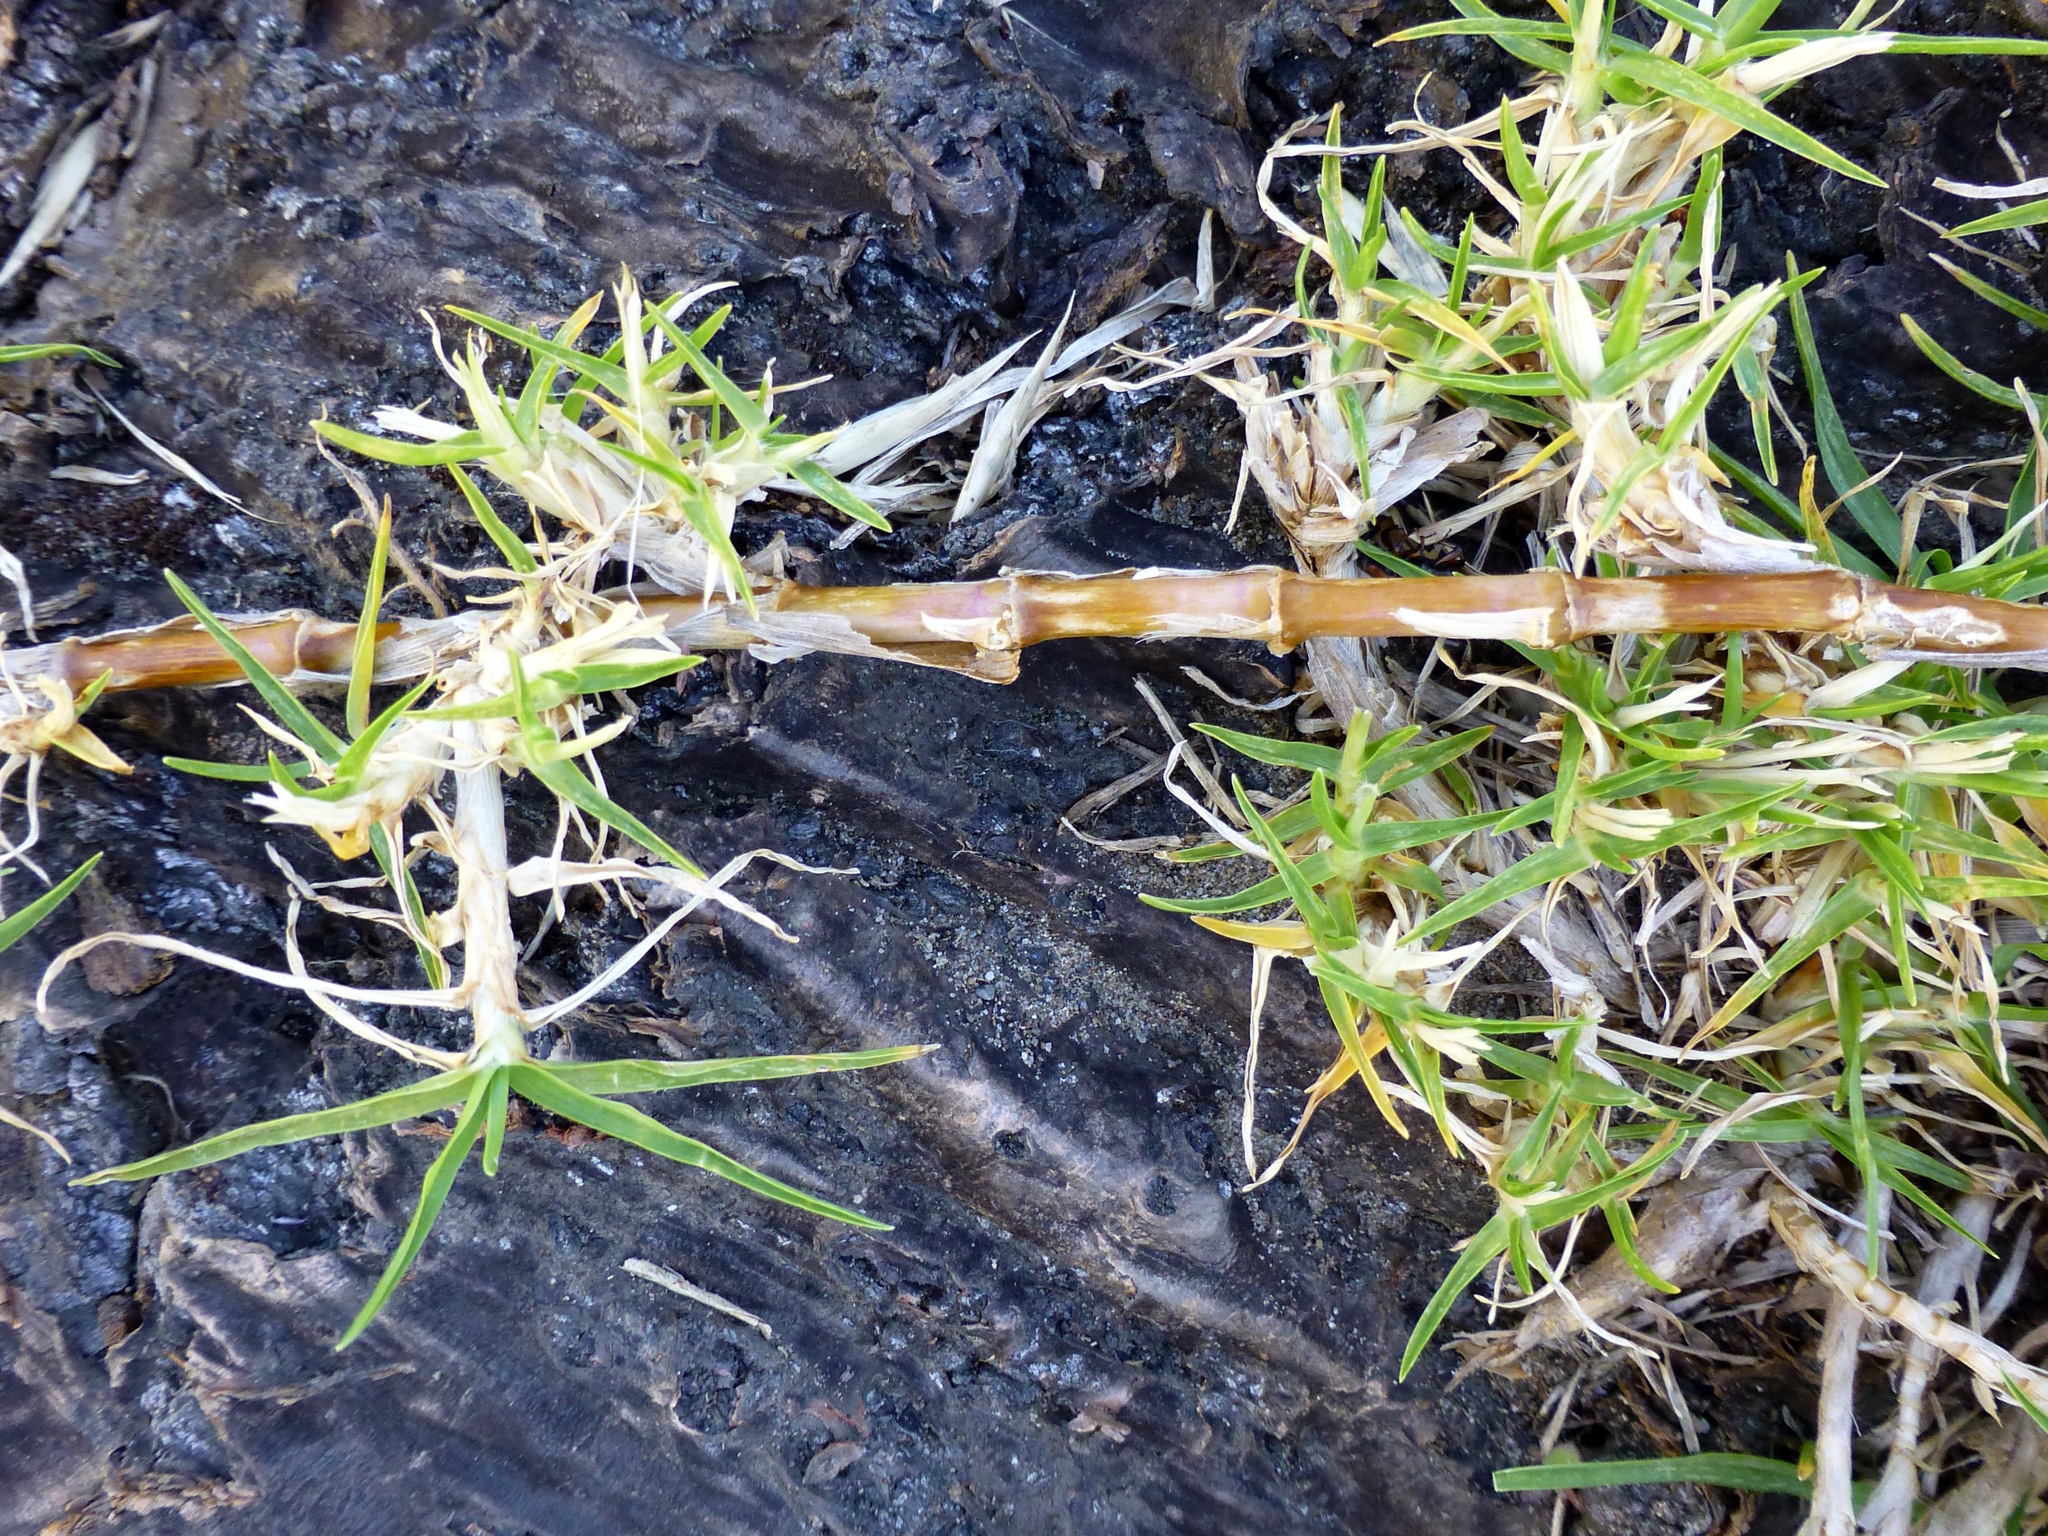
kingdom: Plantae
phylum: Tracheophyta
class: Liliopsida
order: Poales
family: Poaceae
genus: Cenchrus
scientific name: Cenchrus clandestinus
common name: Kikuyugrass
